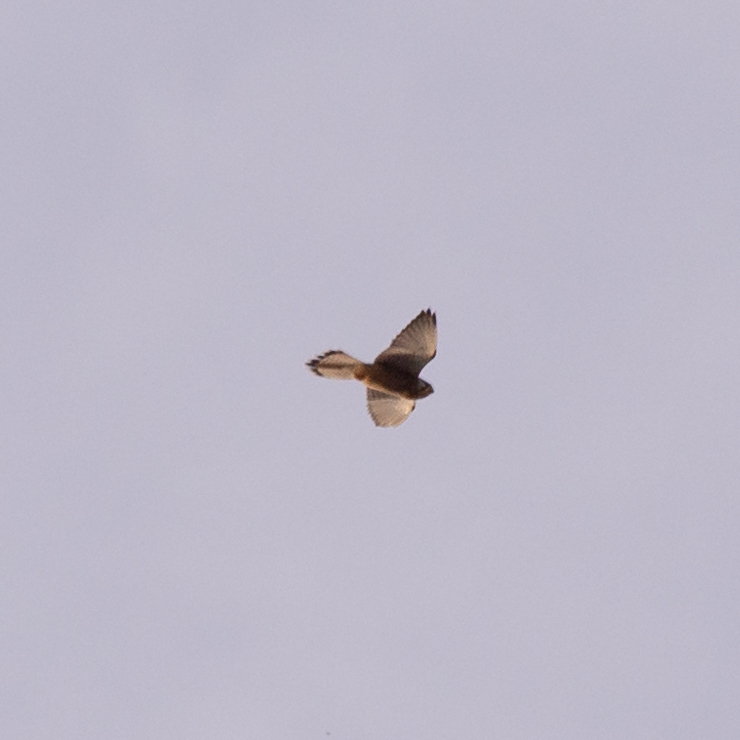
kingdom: Animalia
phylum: Chordata
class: Aves
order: Falconiformes
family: Falconidae
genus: Falco
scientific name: Falco tinnunculus
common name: Common kestrel
